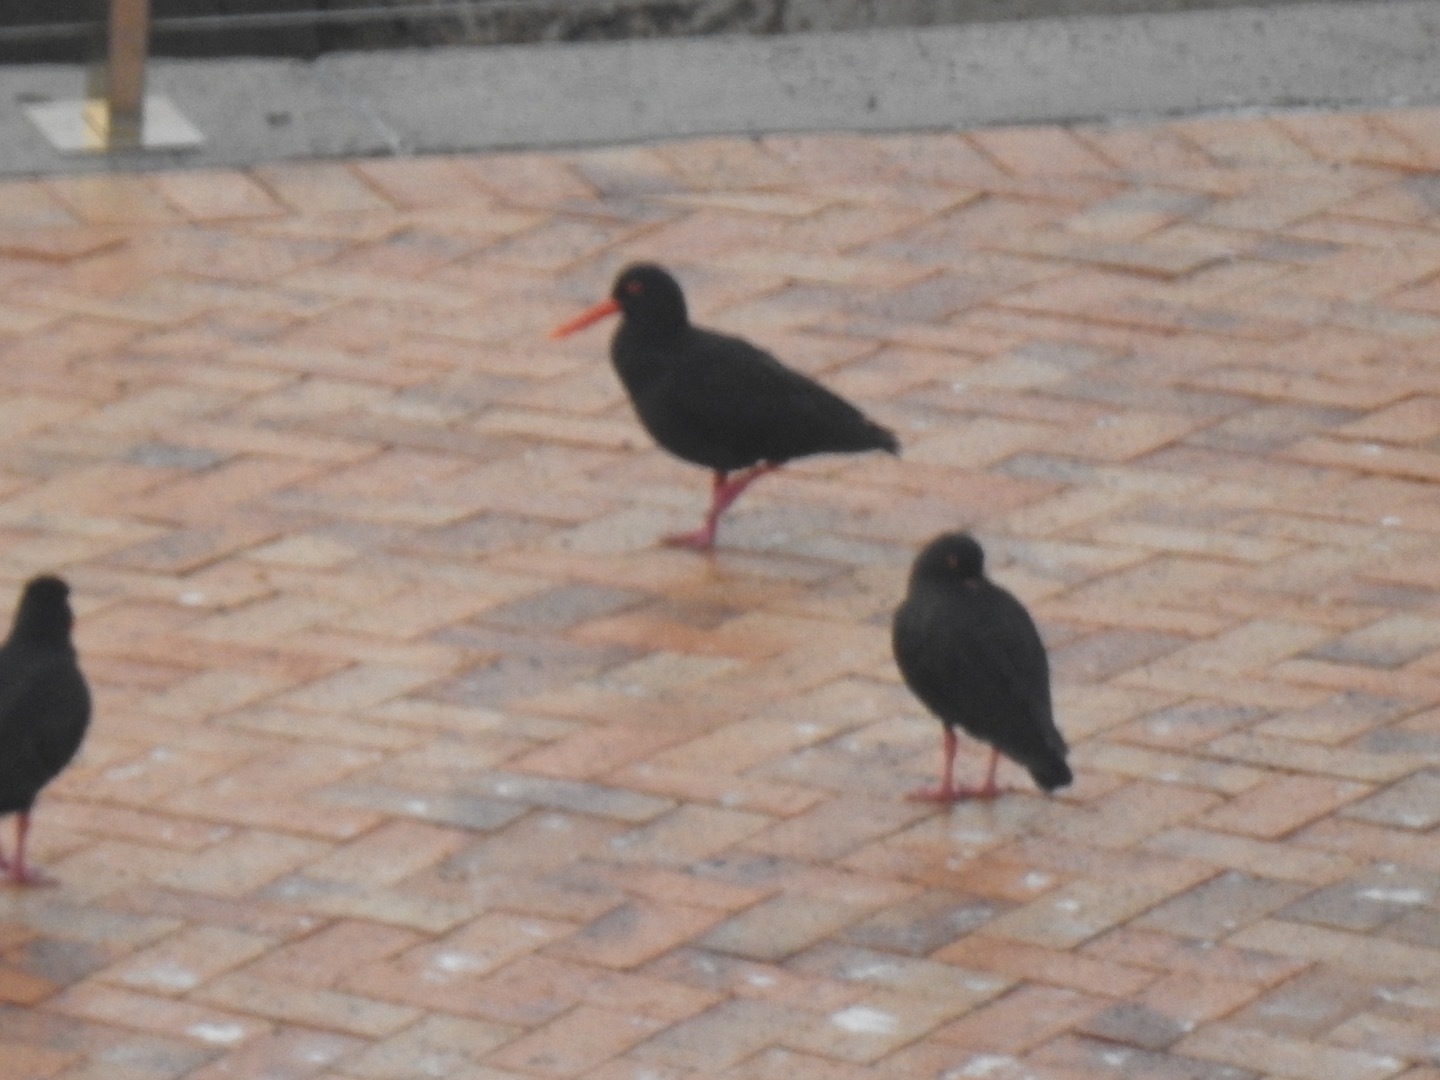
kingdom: Animalia
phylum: Chordata
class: Aves
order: Charadriiformes
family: Haematopodidae
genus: Haematopus
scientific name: Haematopus moquini
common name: African oystercatcher
